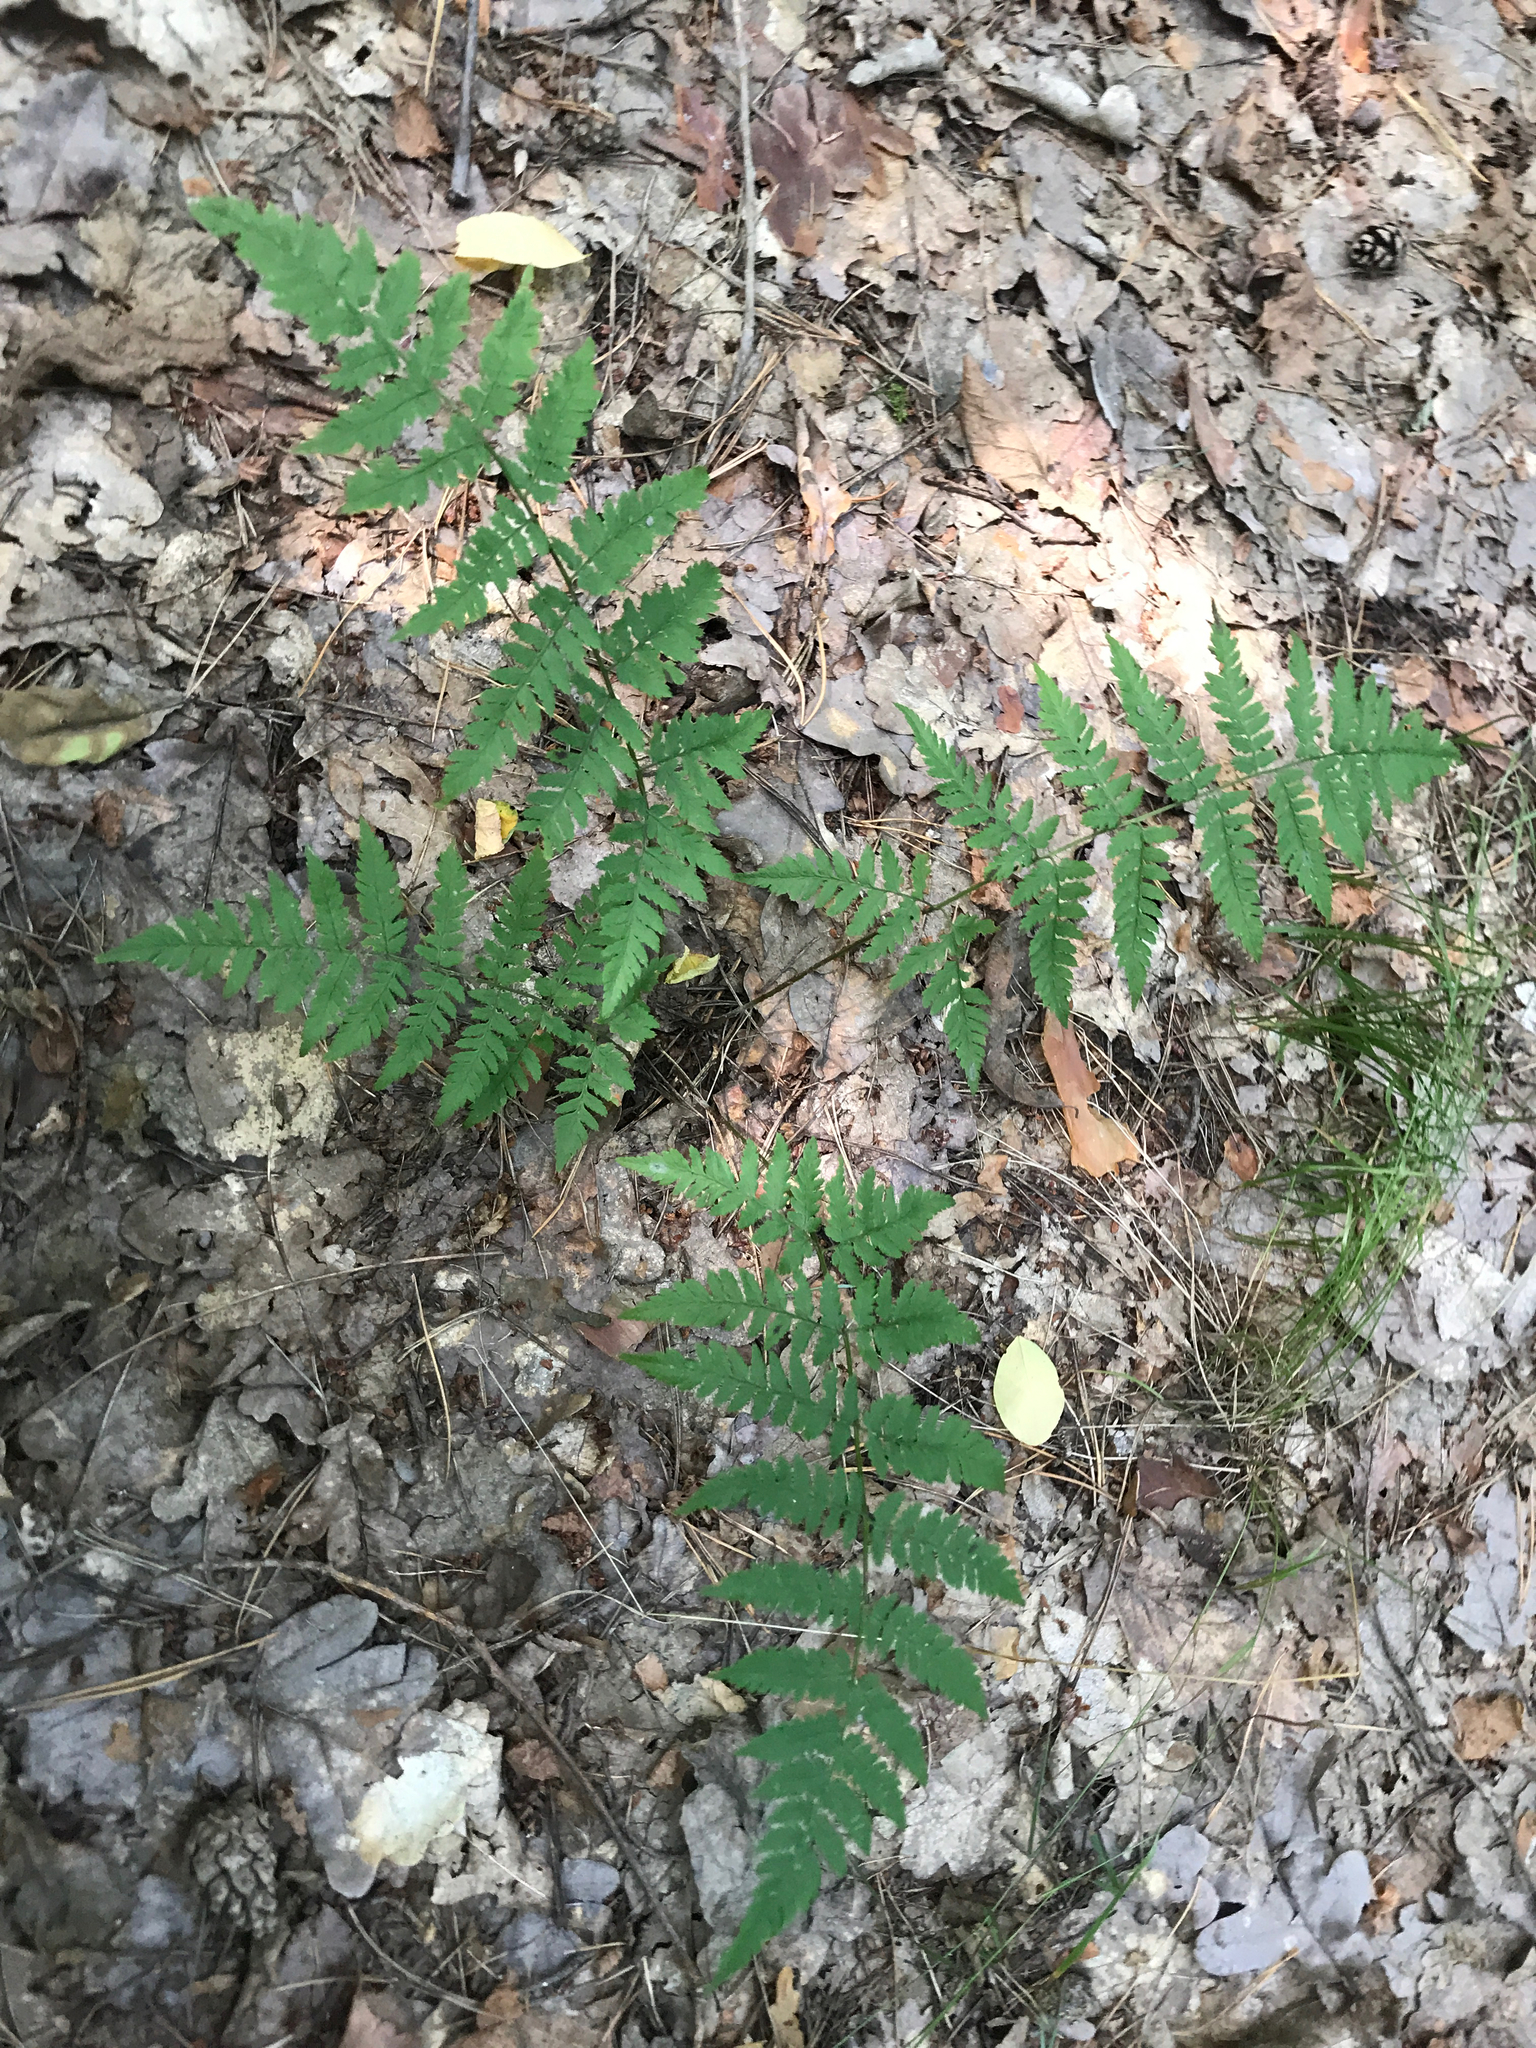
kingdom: Plantae
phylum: Tracheophyta
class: Polypodiopsida
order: Polypodiales
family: Dryopteridaceae
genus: Dryopteris
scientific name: Dryopteris carthusiana
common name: Narrow buckler-fern
